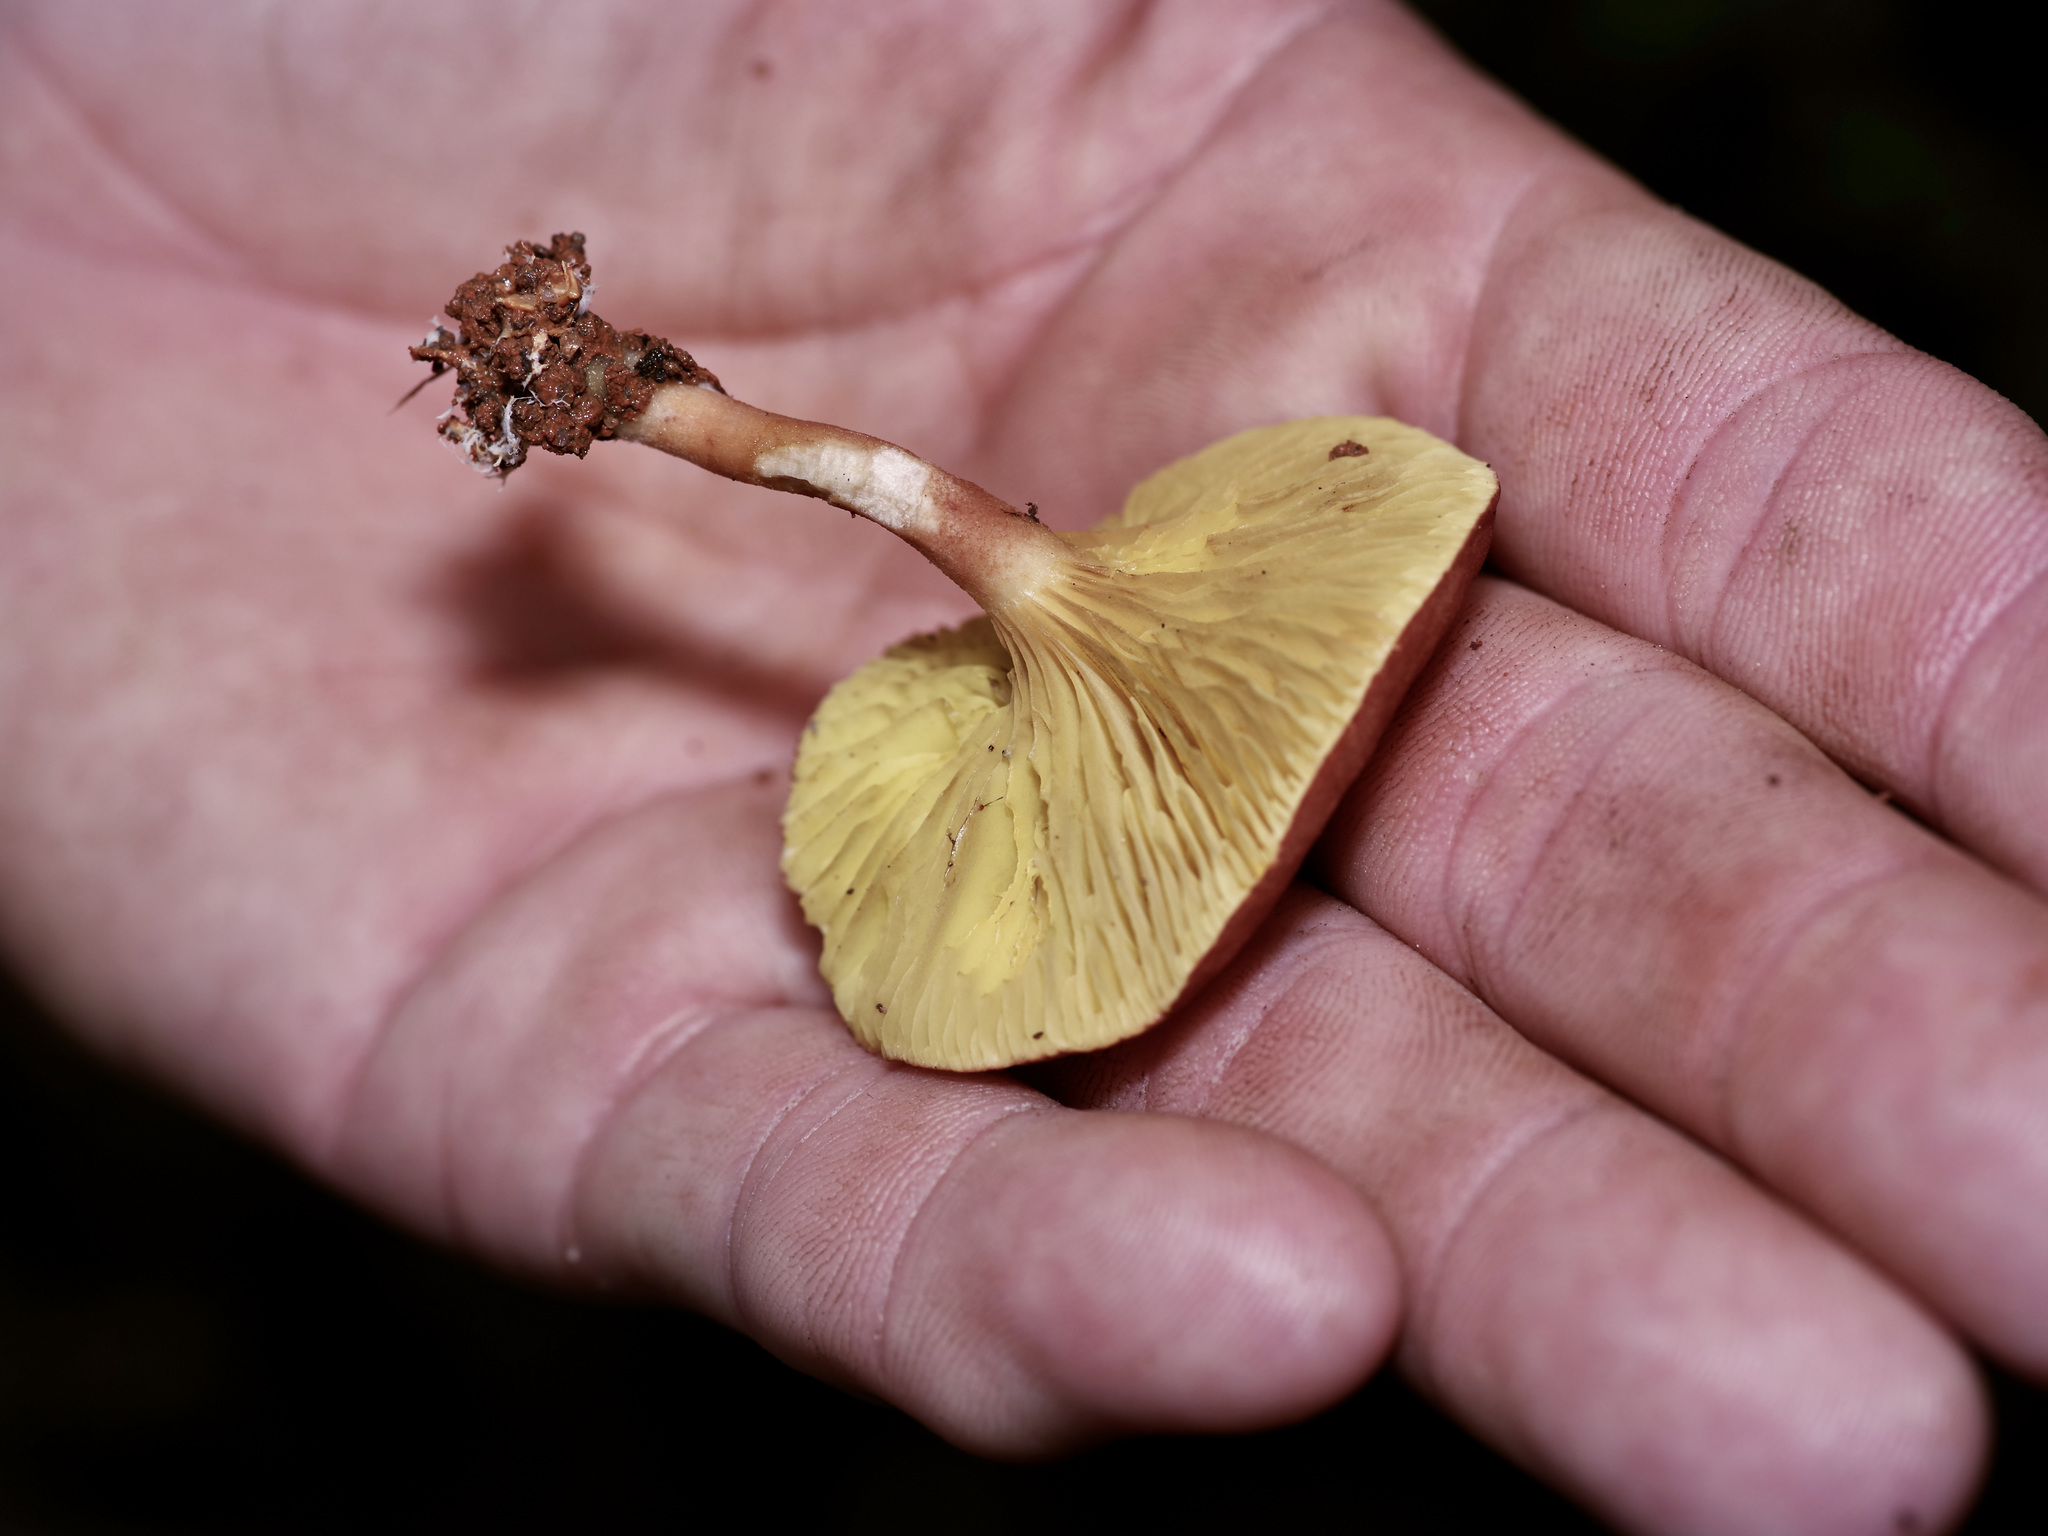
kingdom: Fungi
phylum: Basidiomycota
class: Agaricomycetes
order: Boletales
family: Boletaceae
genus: Phylloporus
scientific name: Phylloporus leucomycelinus
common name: Gilled bolete
